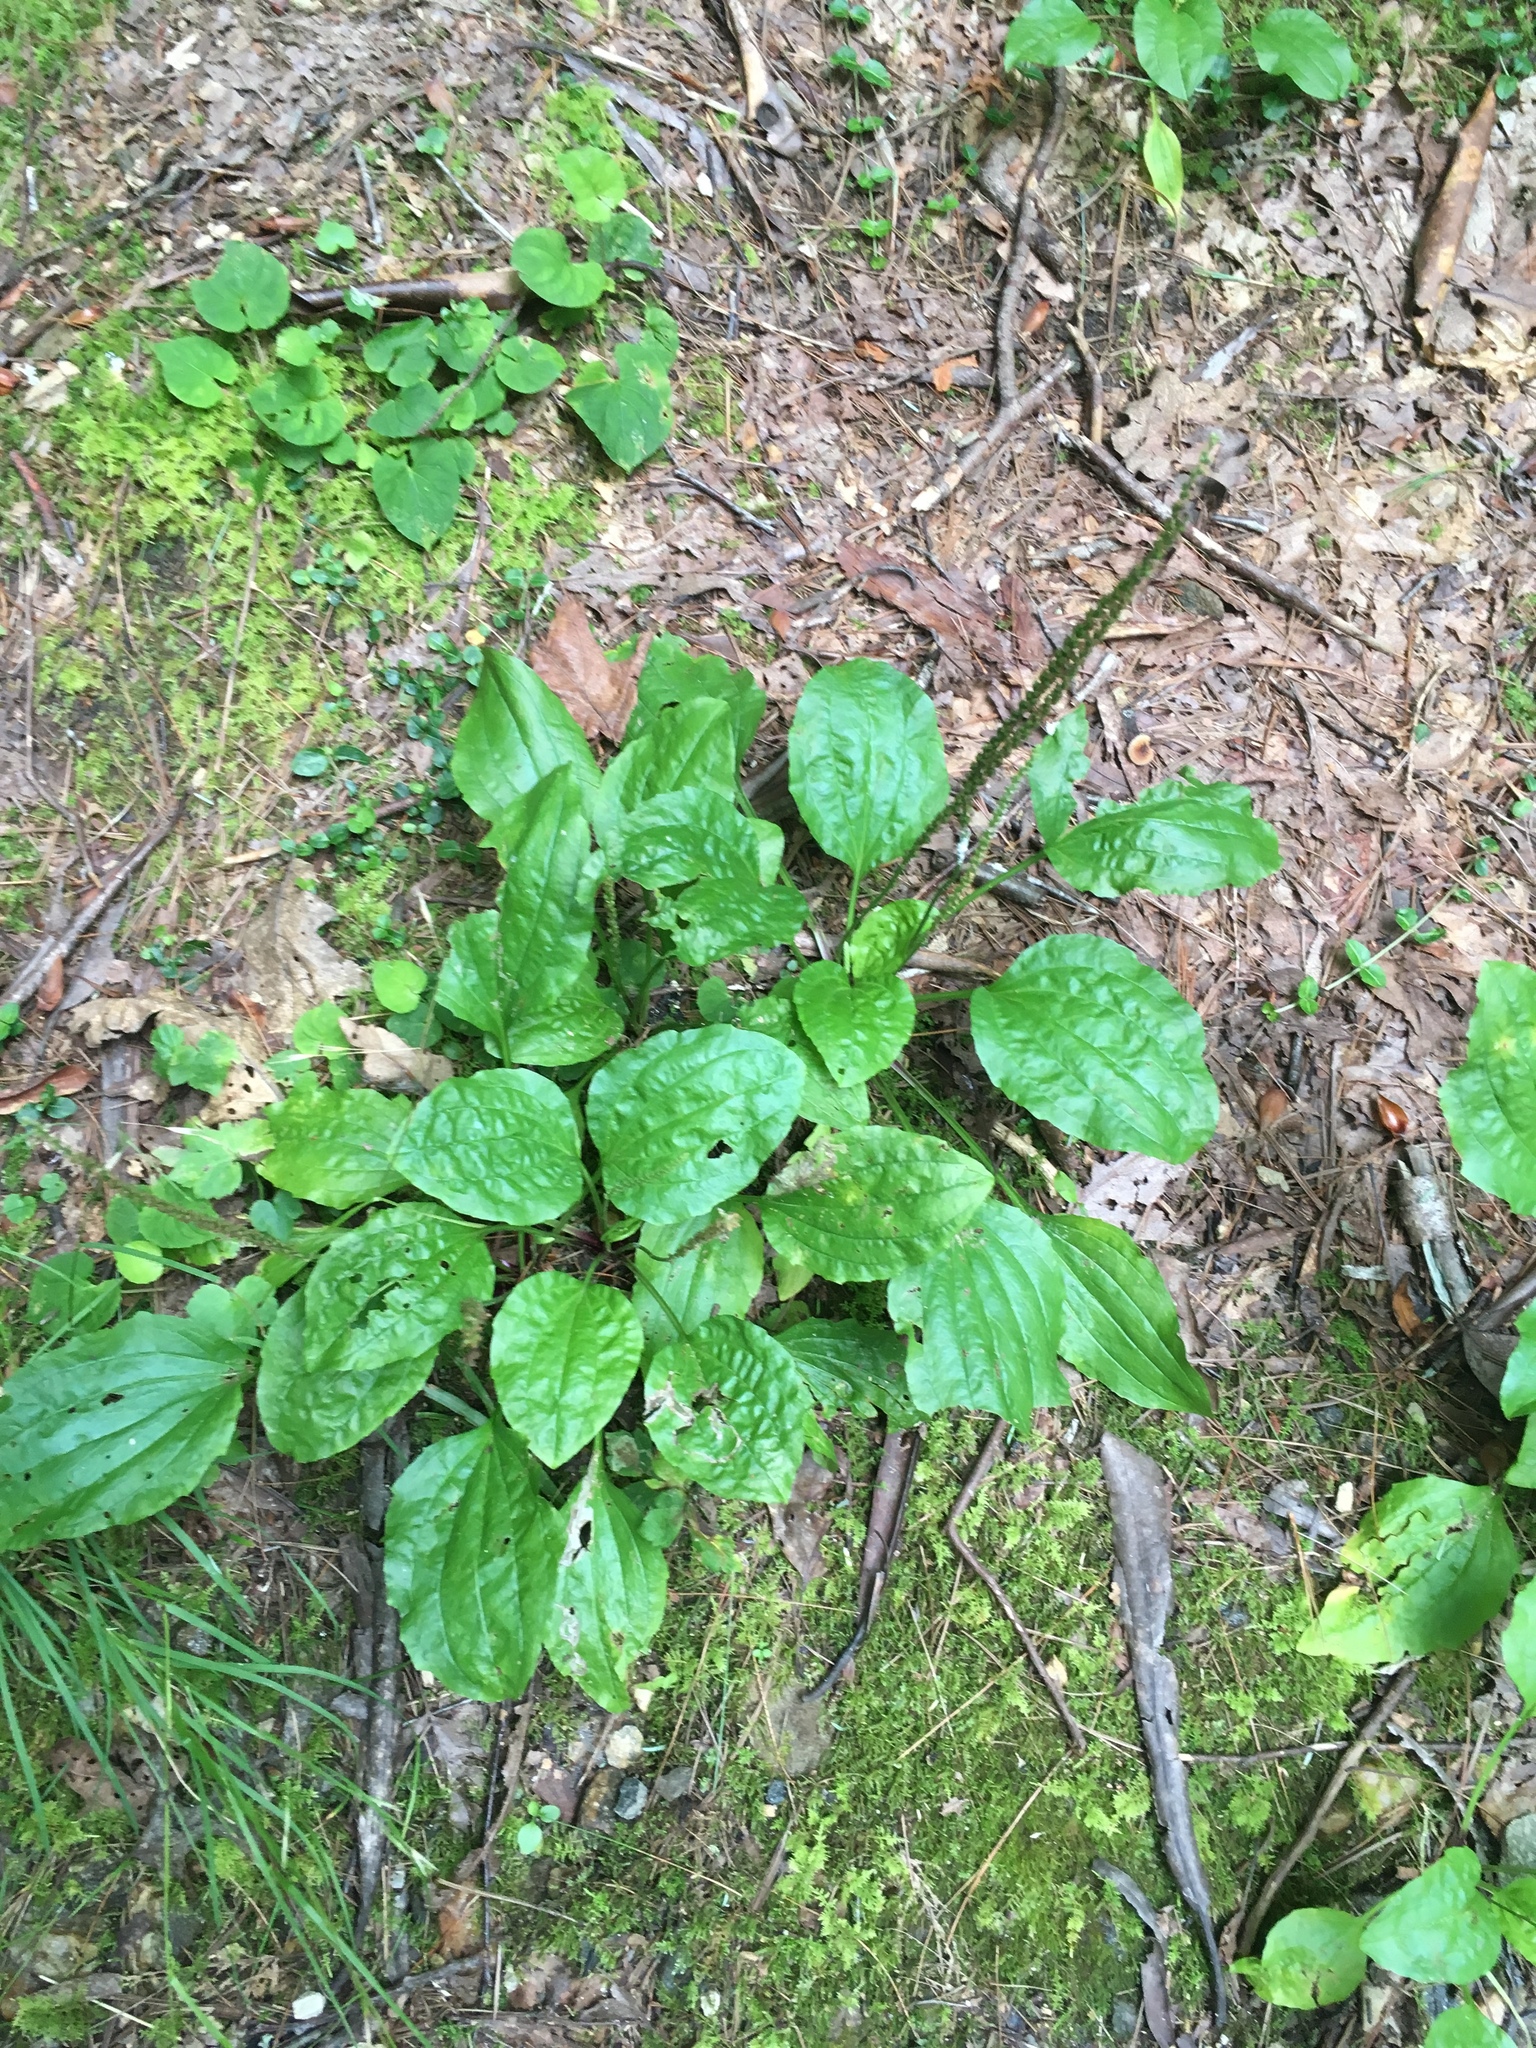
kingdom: Plantae
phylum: Tracheophyta
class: Magnoliopsida
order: Lamiales
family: Plantaginaceae
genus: Plantago
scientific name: Plantago rugelii
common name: American plantain
